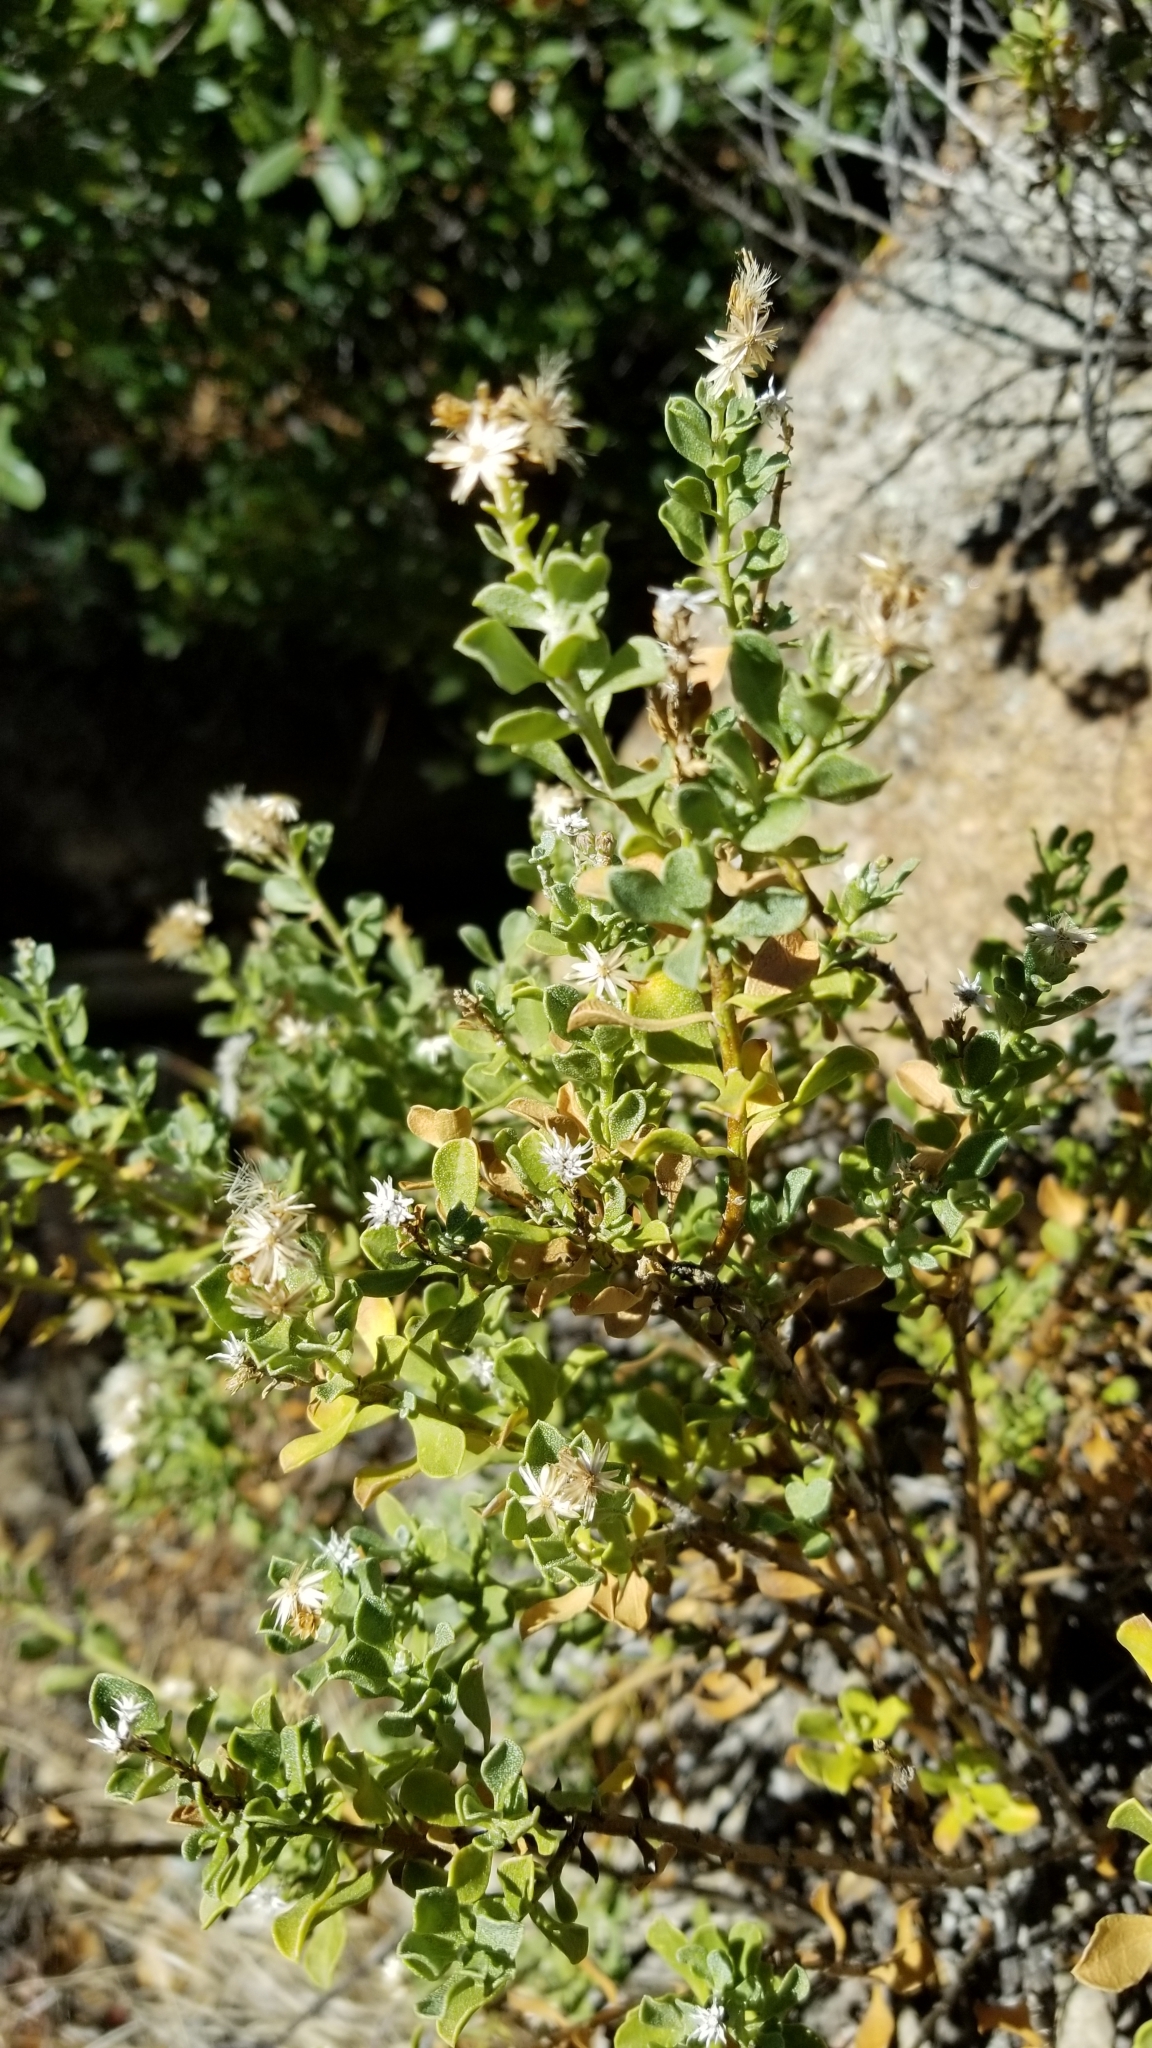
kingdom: Plantae
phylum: Tracheophyta
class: Magnoliopsida
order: Asterales
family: Asteraceae
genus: Ericameria
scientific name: Ericameria cuneata
